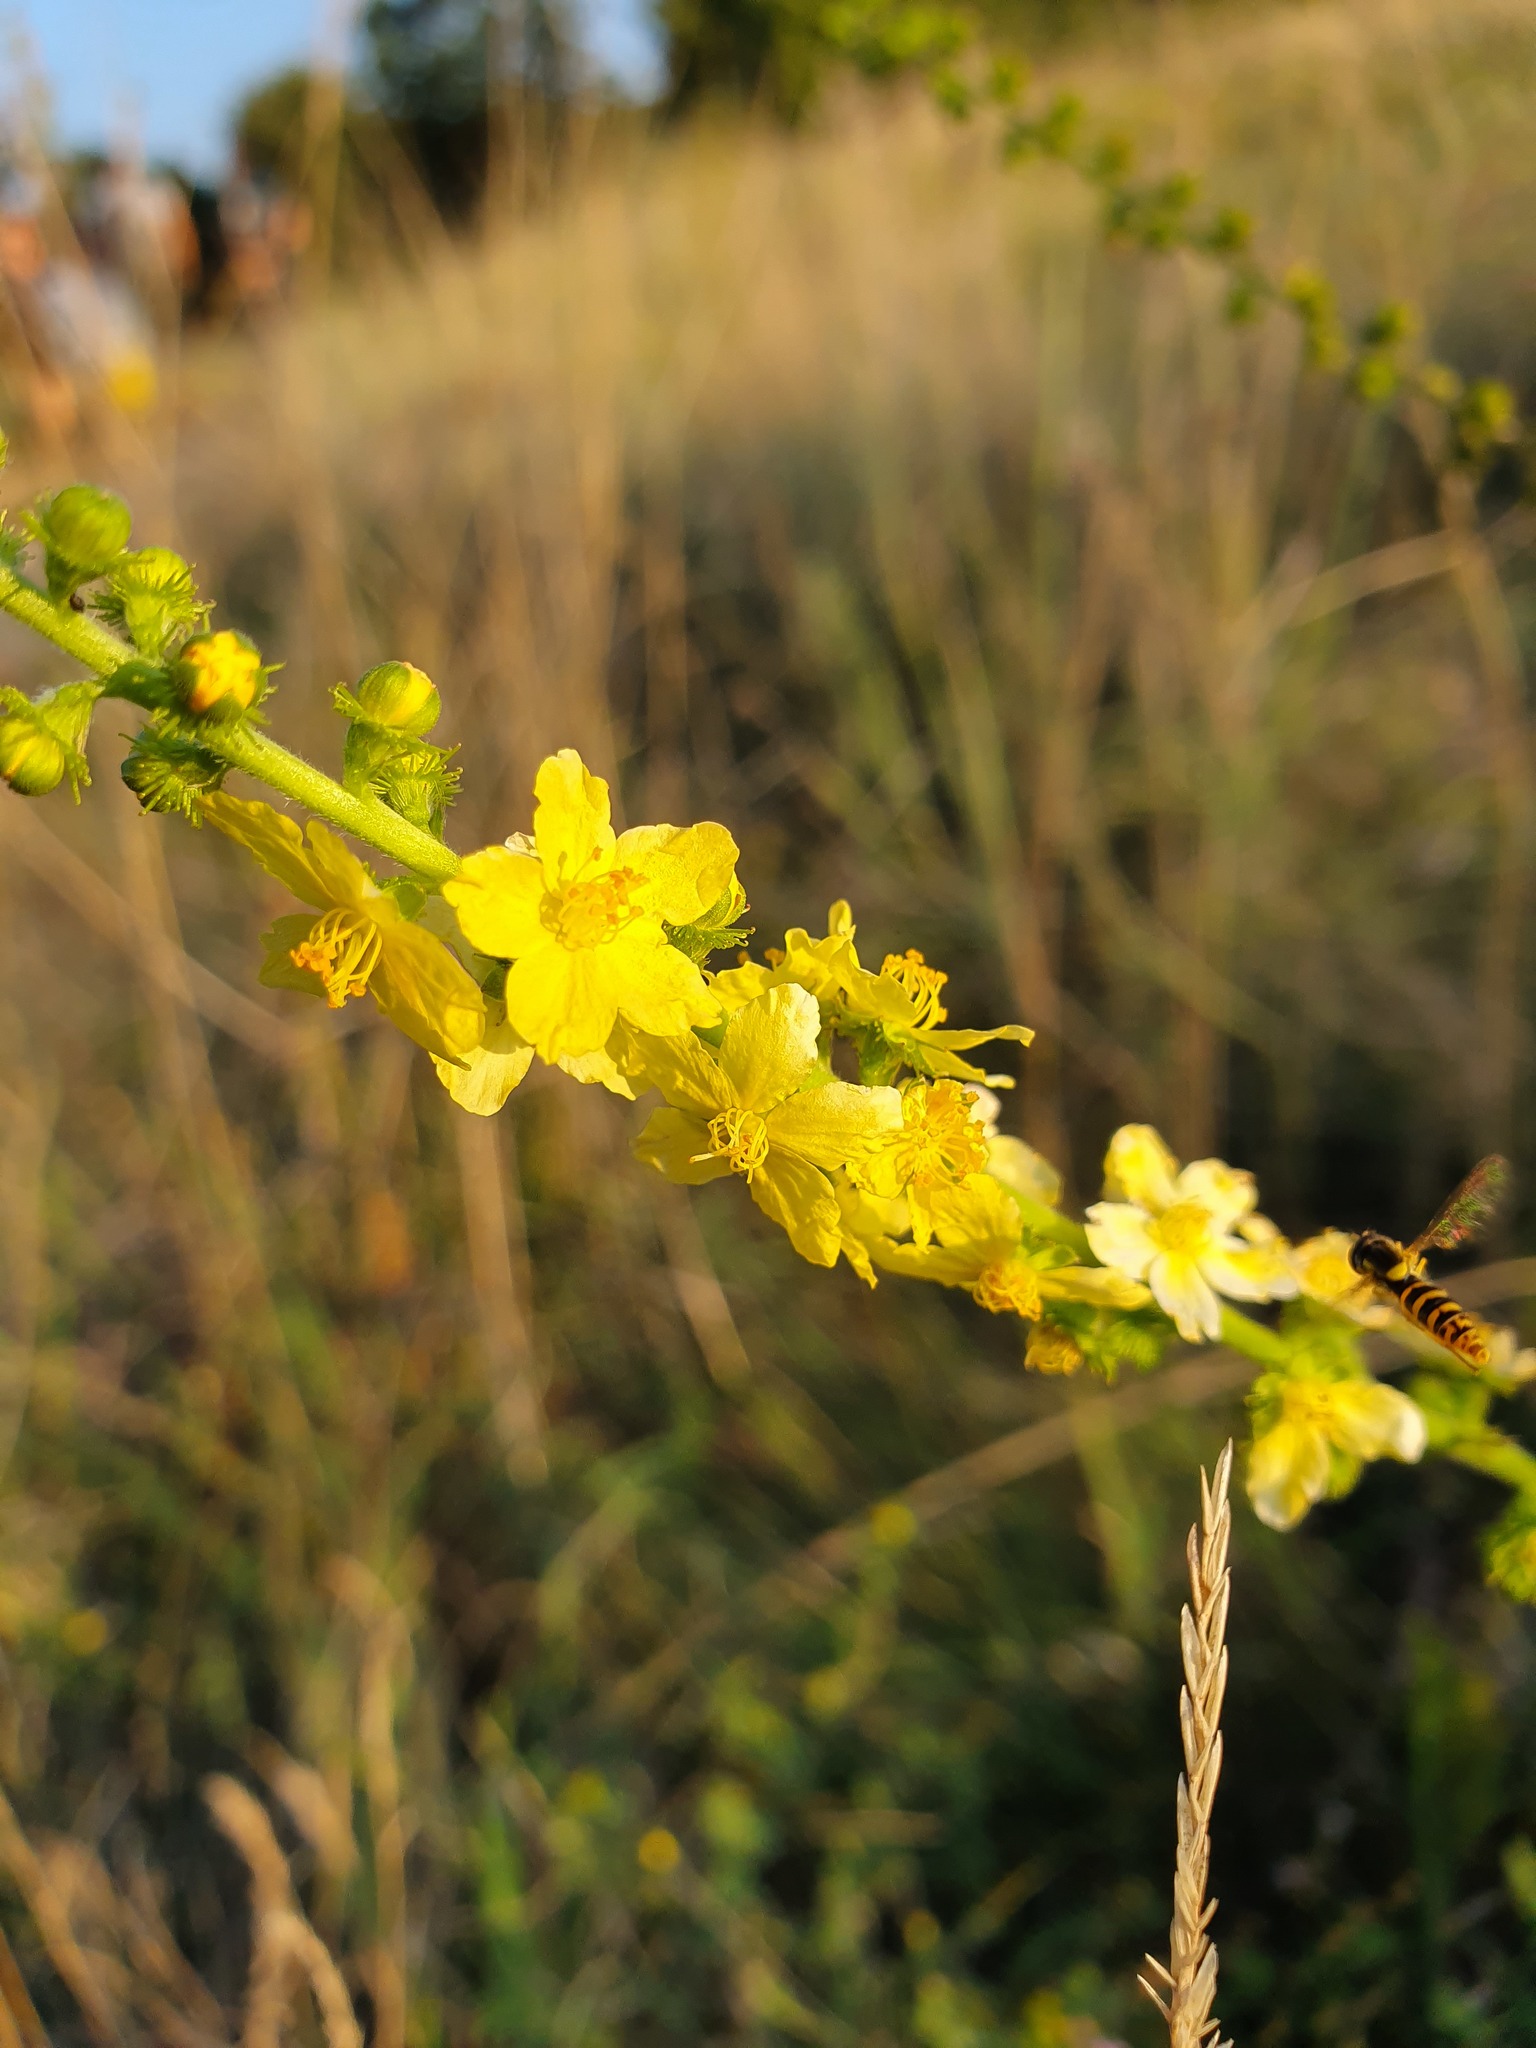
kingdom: Plantae
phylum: Tracheophyta
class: Magnoliopsida
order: Rosales
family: Rosaceae
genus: Agrimonia
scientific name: Agrimonia eupatoria
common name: Agrimony
